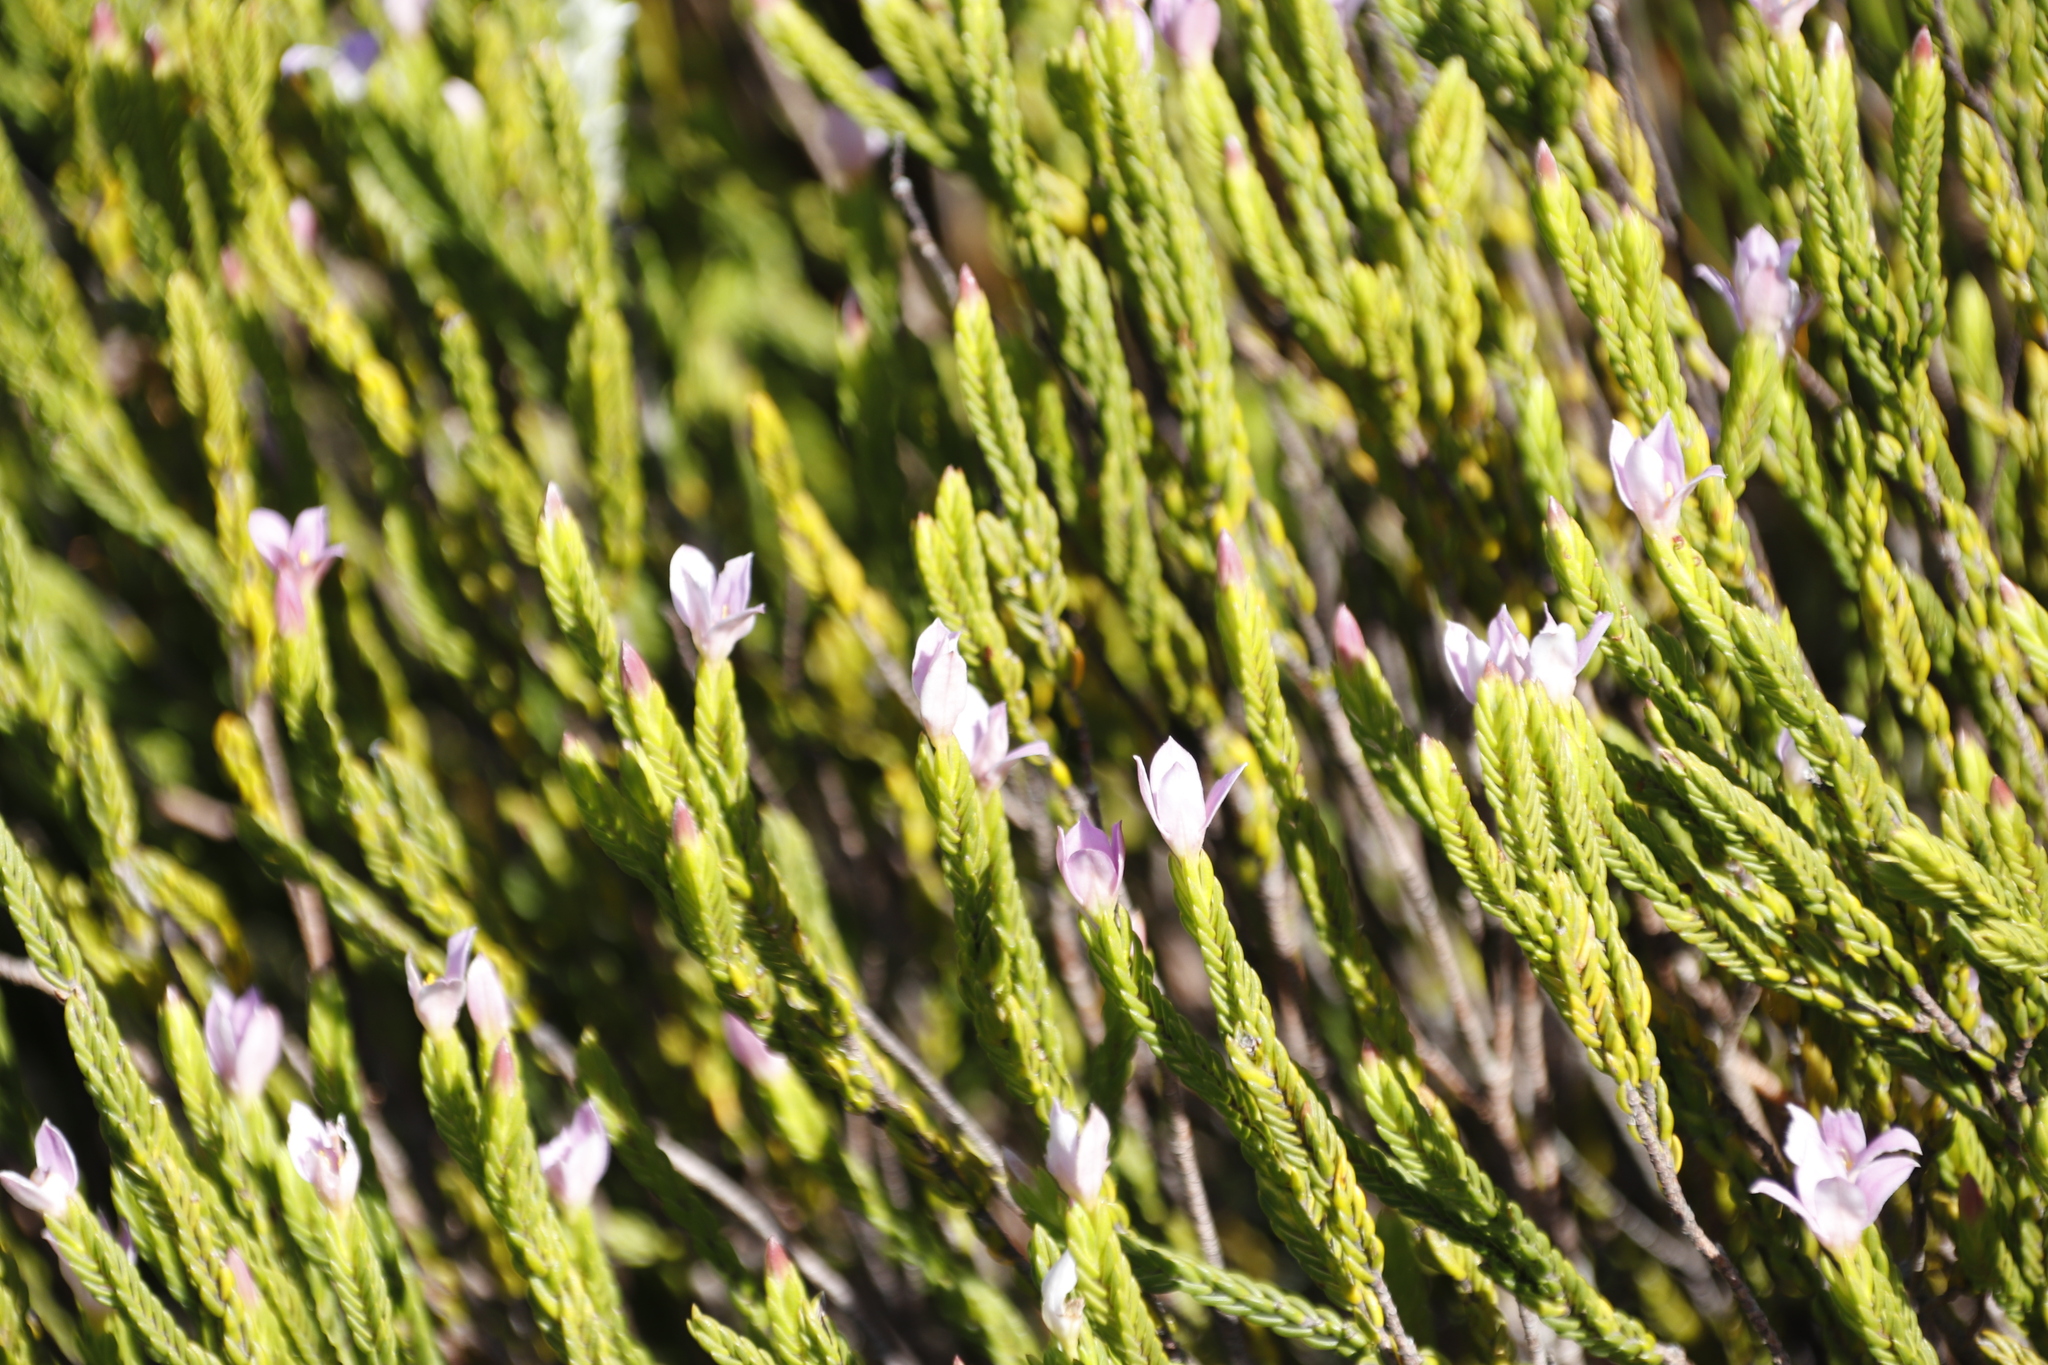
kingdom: Plantae
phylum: Tracheophyta
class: Magnoliopsida
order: Malvales
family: Thymelaeaceae
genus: Lachnaea
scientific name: Lachnaea grandiflora
